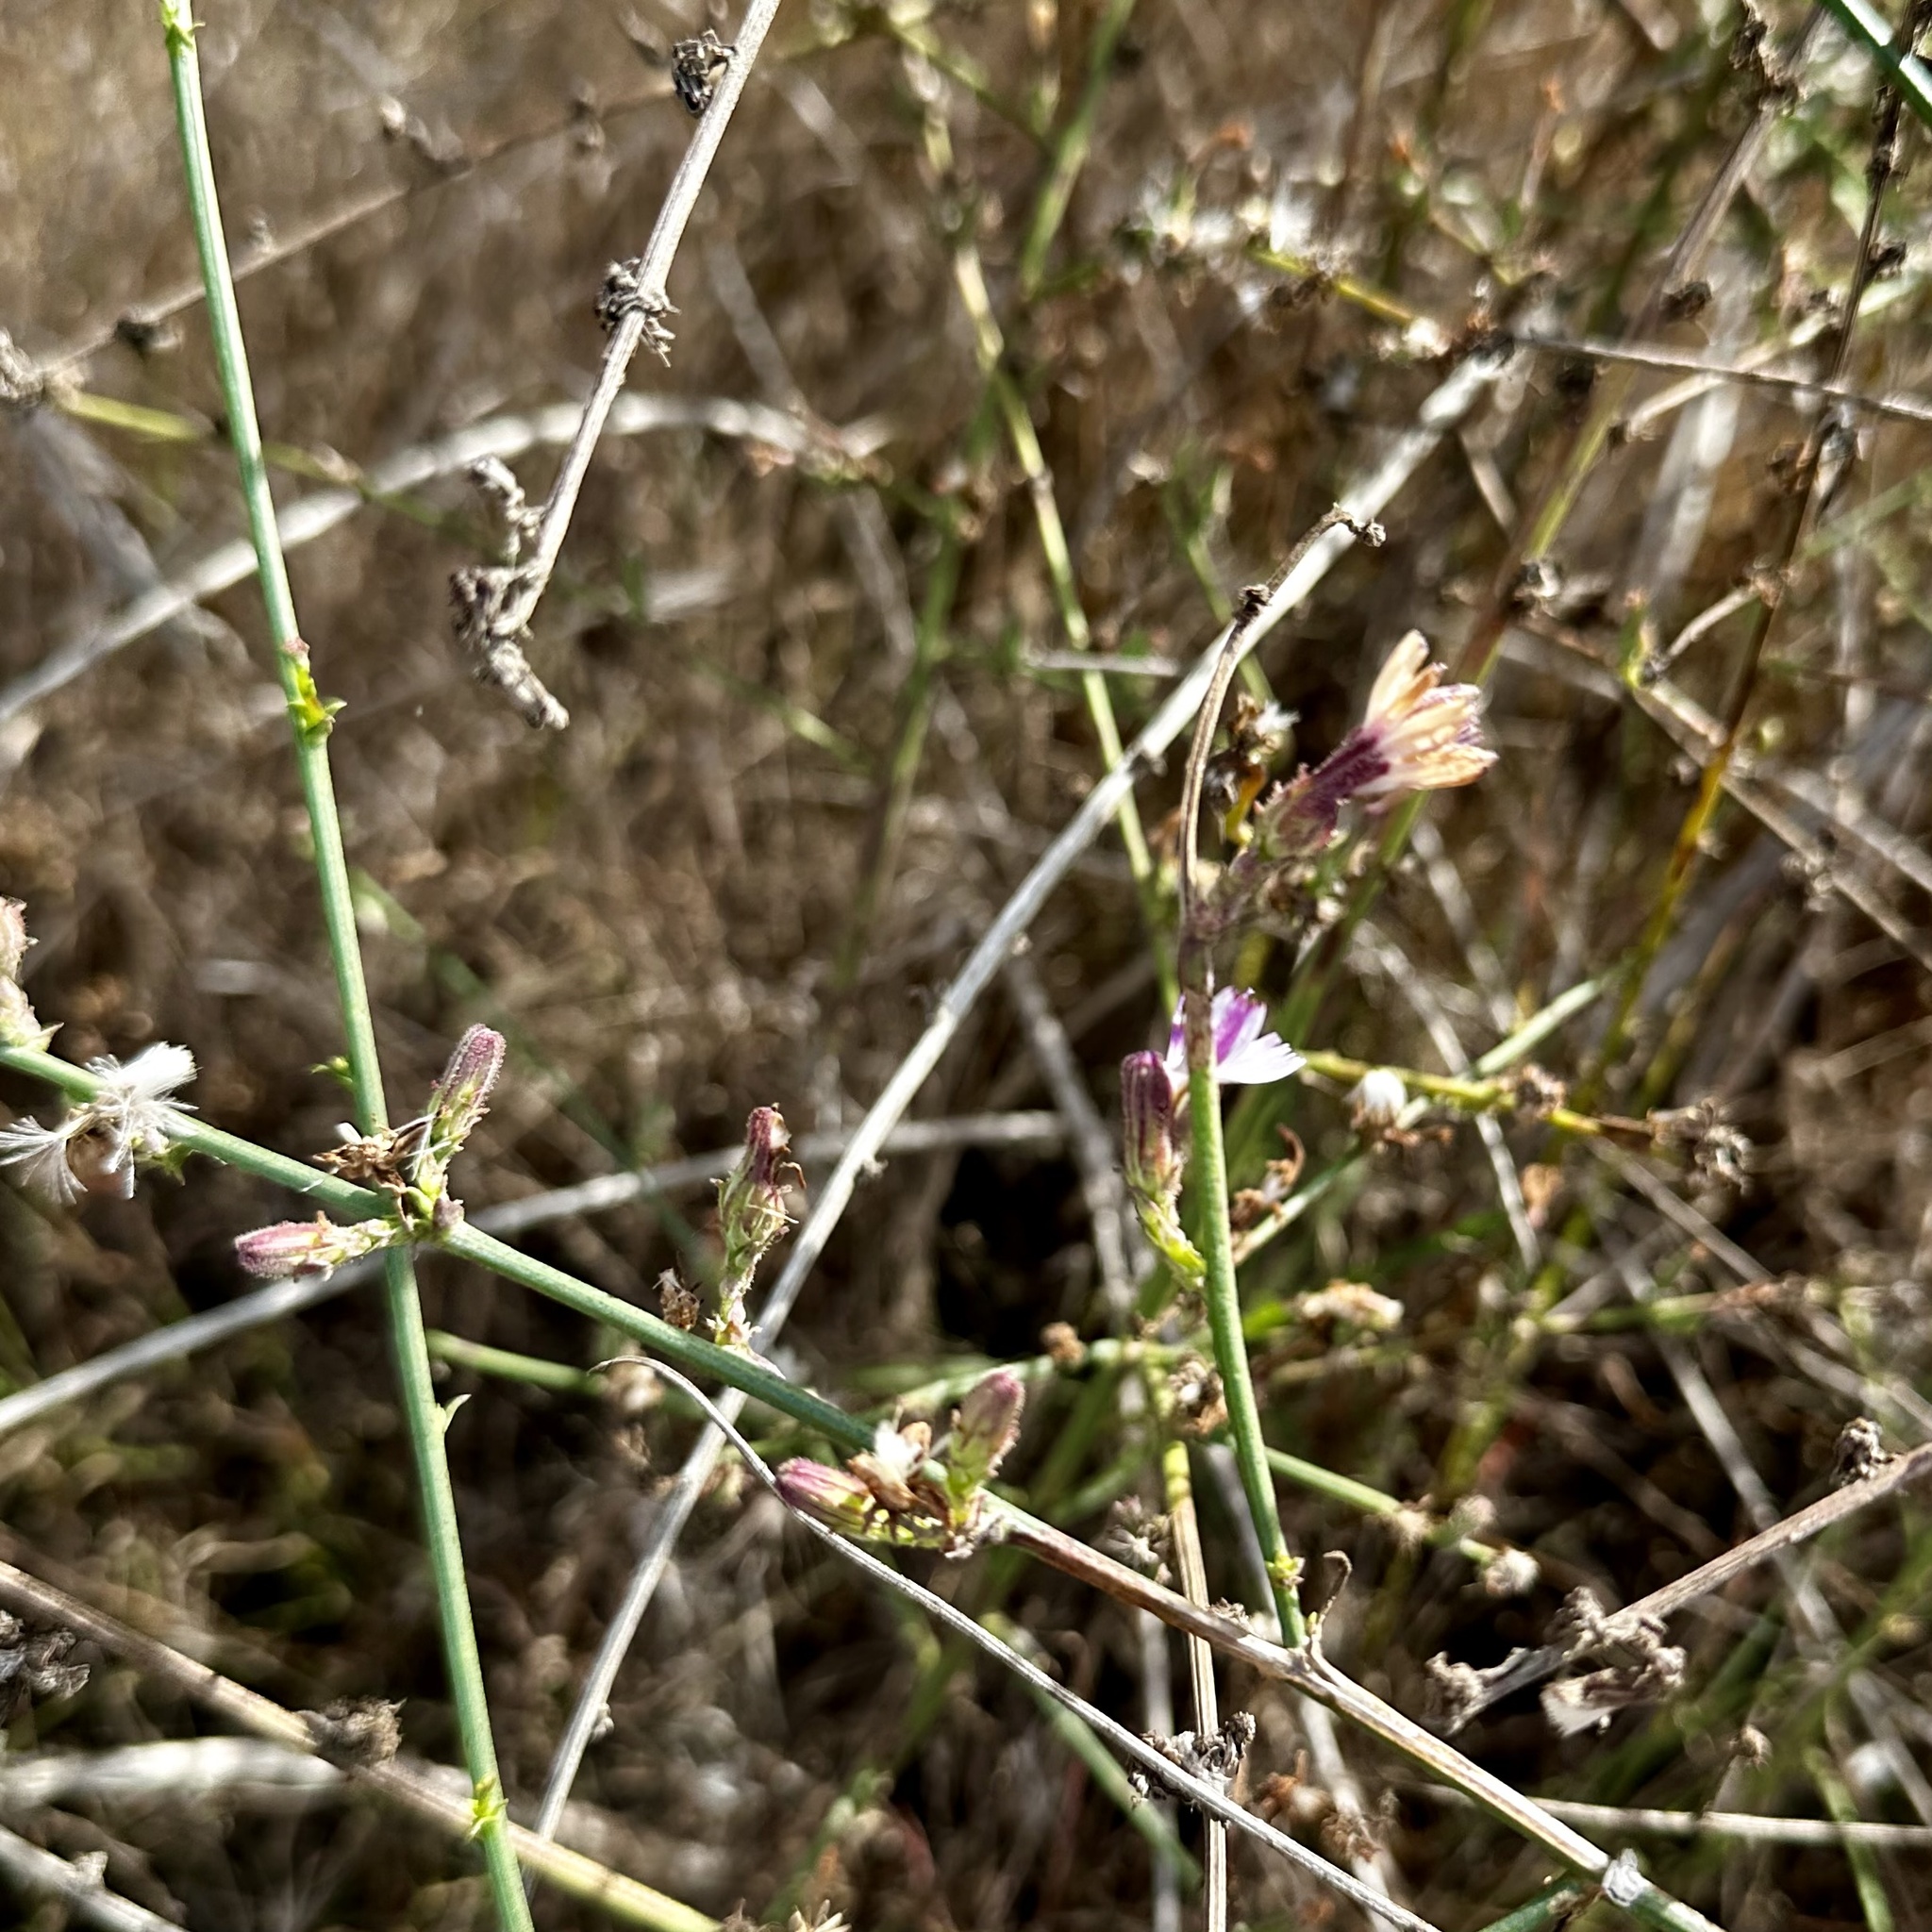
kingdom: Plantae
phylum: Tracheophyta
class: Magnoliopsida
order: Asterales
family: Asteraceae
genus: Stephanomeria
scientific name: Stephanomeria diegensis
